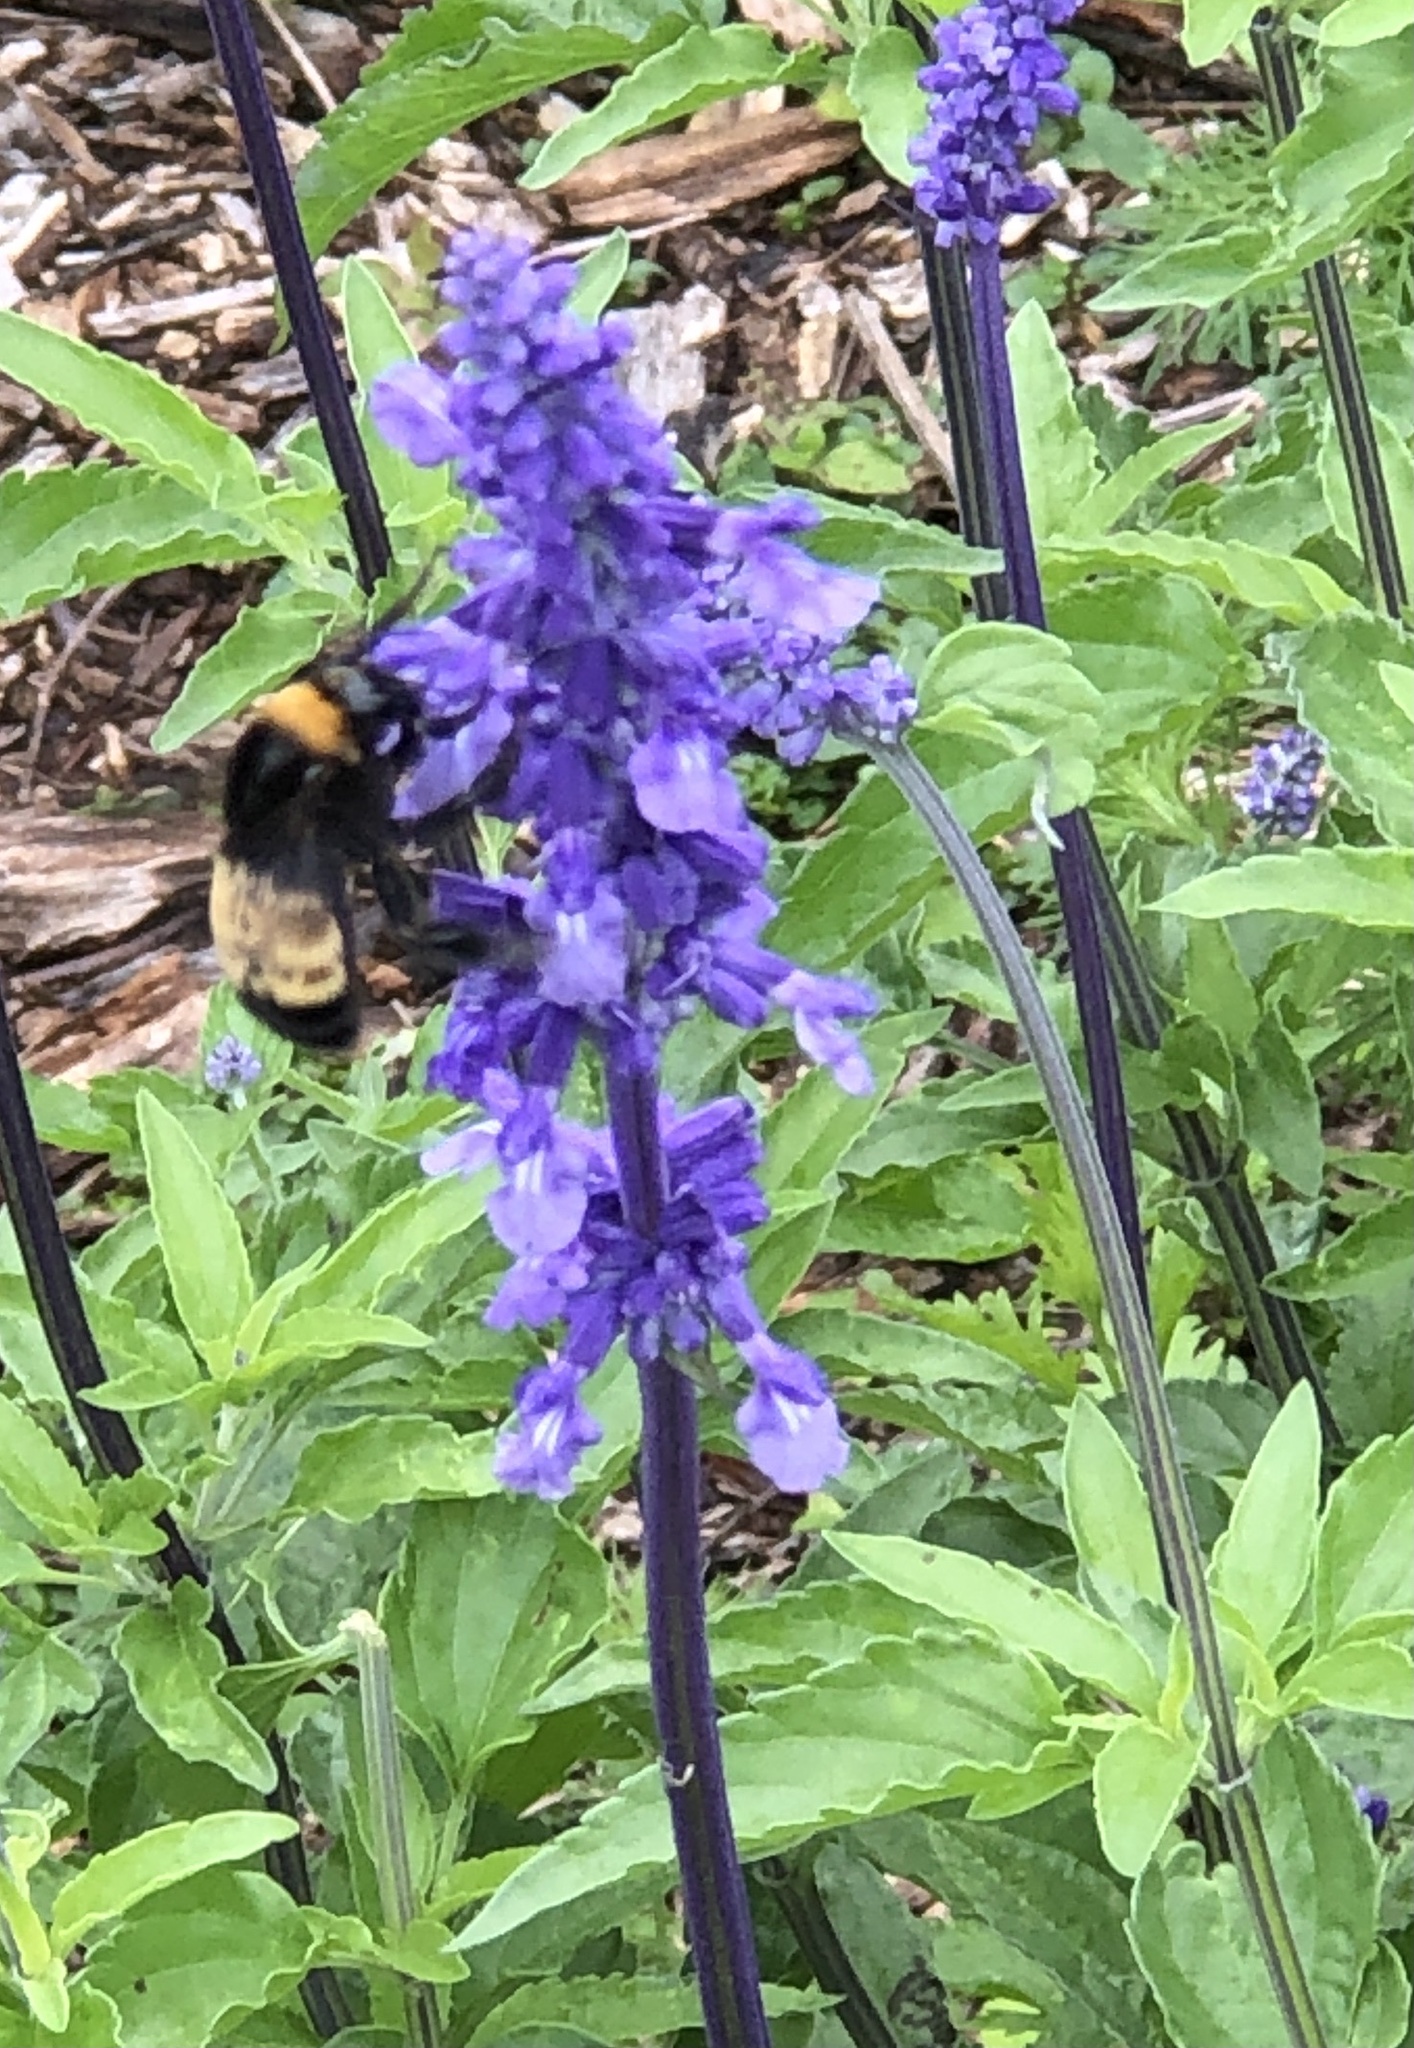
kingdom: Animalia
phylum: Arthropoda
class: Insecta
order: Hymenoptera
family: Apidae
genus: Bombus
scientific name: Bombus pensylvanicus
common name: Bumble bee
